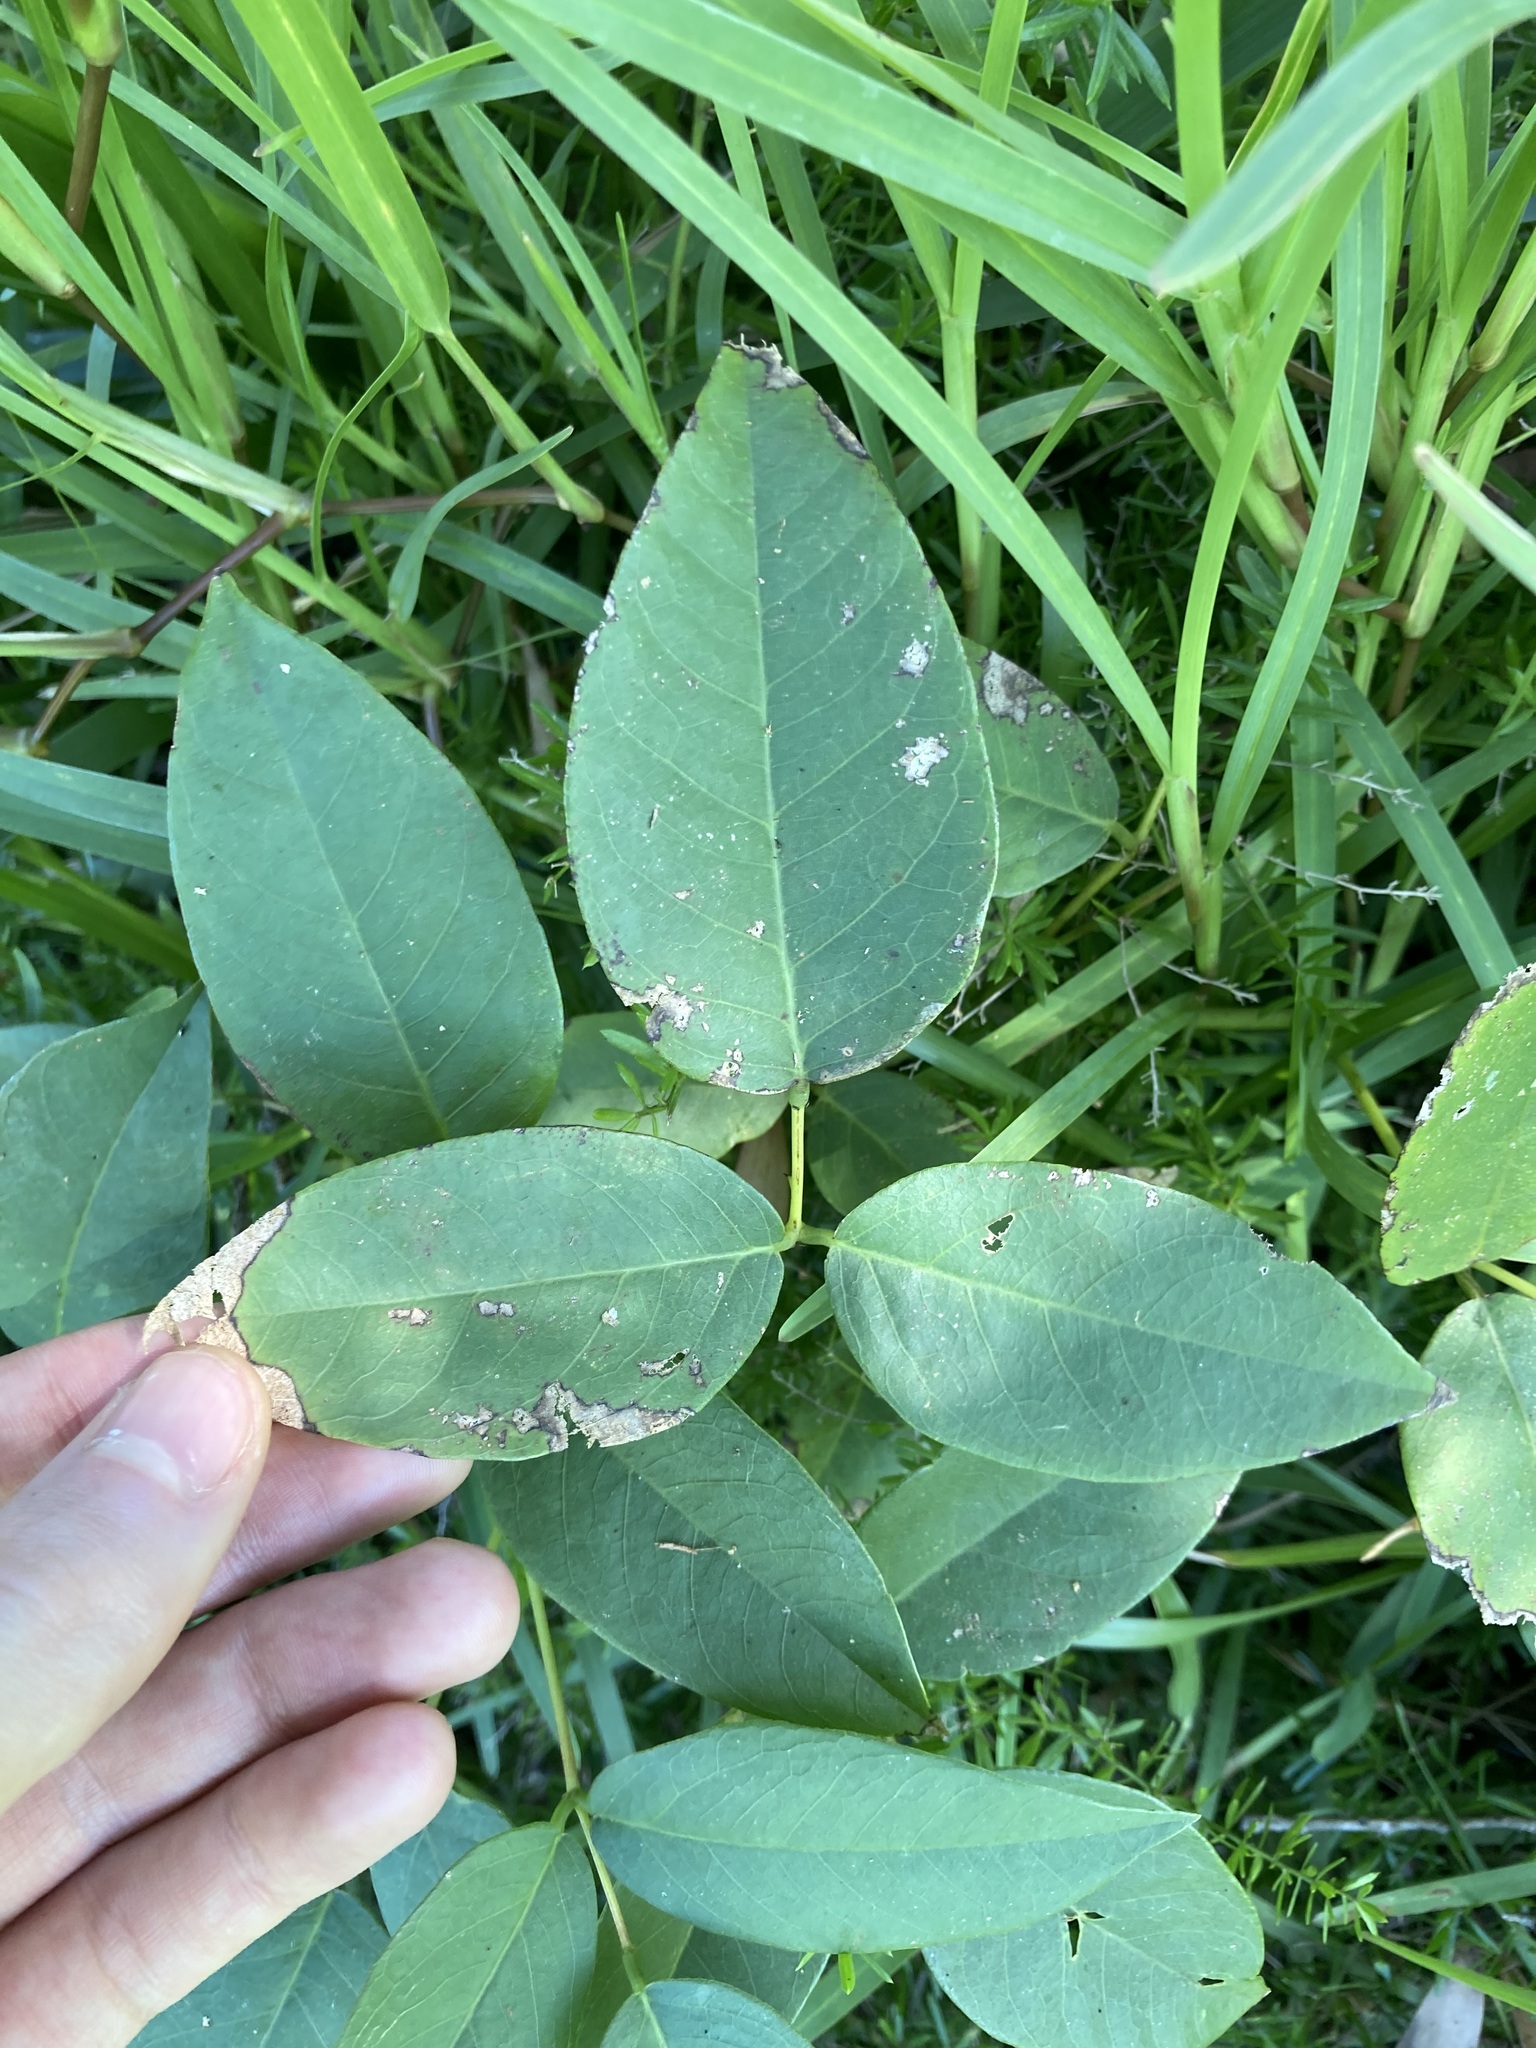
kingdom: Plantae
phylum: Tracheophyta
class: Magnoliopsida
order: Fabales
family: Fabaceae
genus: Erythrina
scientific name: Erythrina crista-galli
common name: Cockspur coral tree
